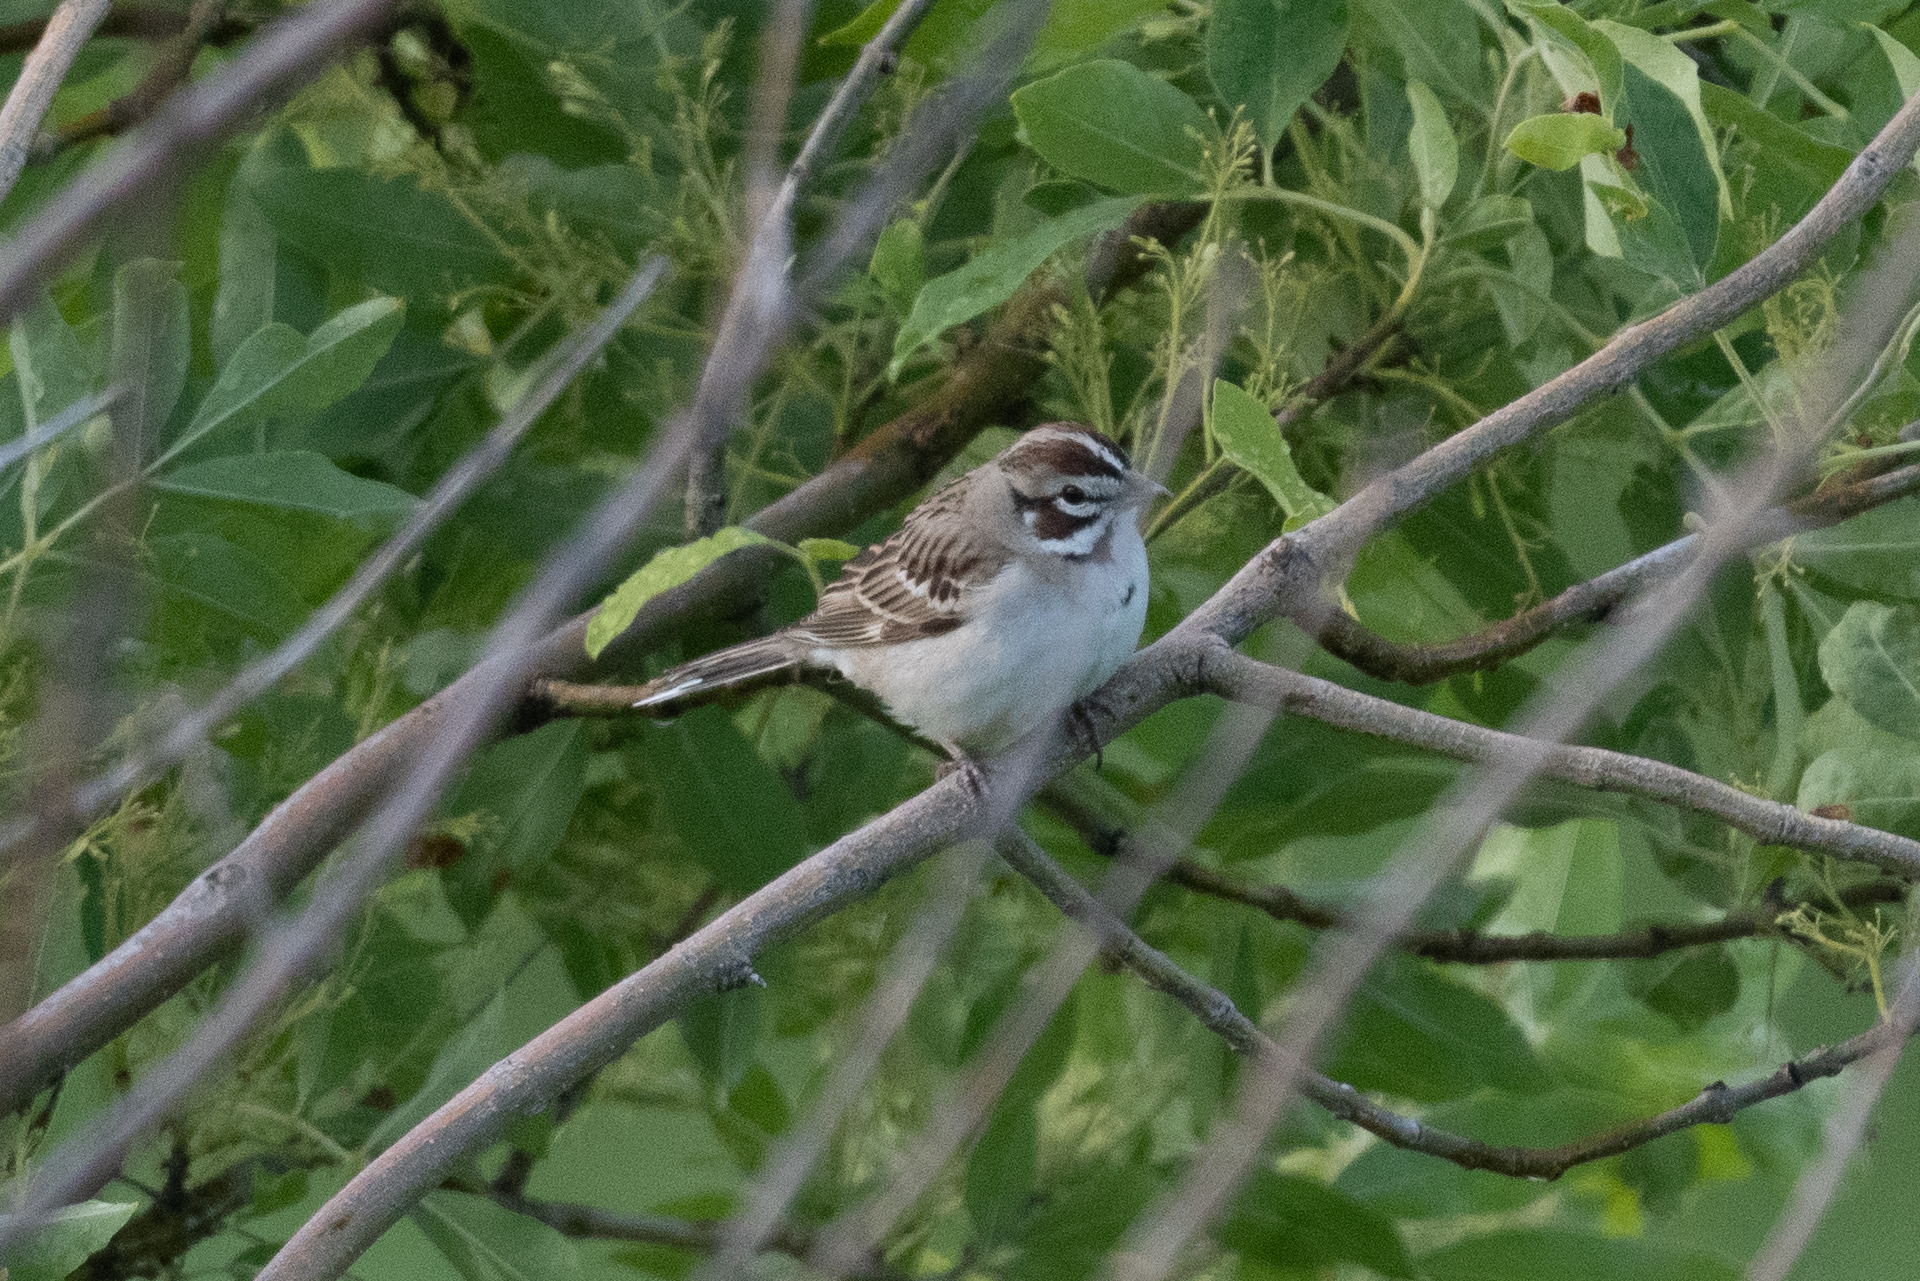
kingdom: Animalia
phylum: Chordata
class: Aves
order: Passeriformes
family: Passerellidae
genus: Chondestes
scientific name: Chondestes grammacus
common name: Lark sparrow
